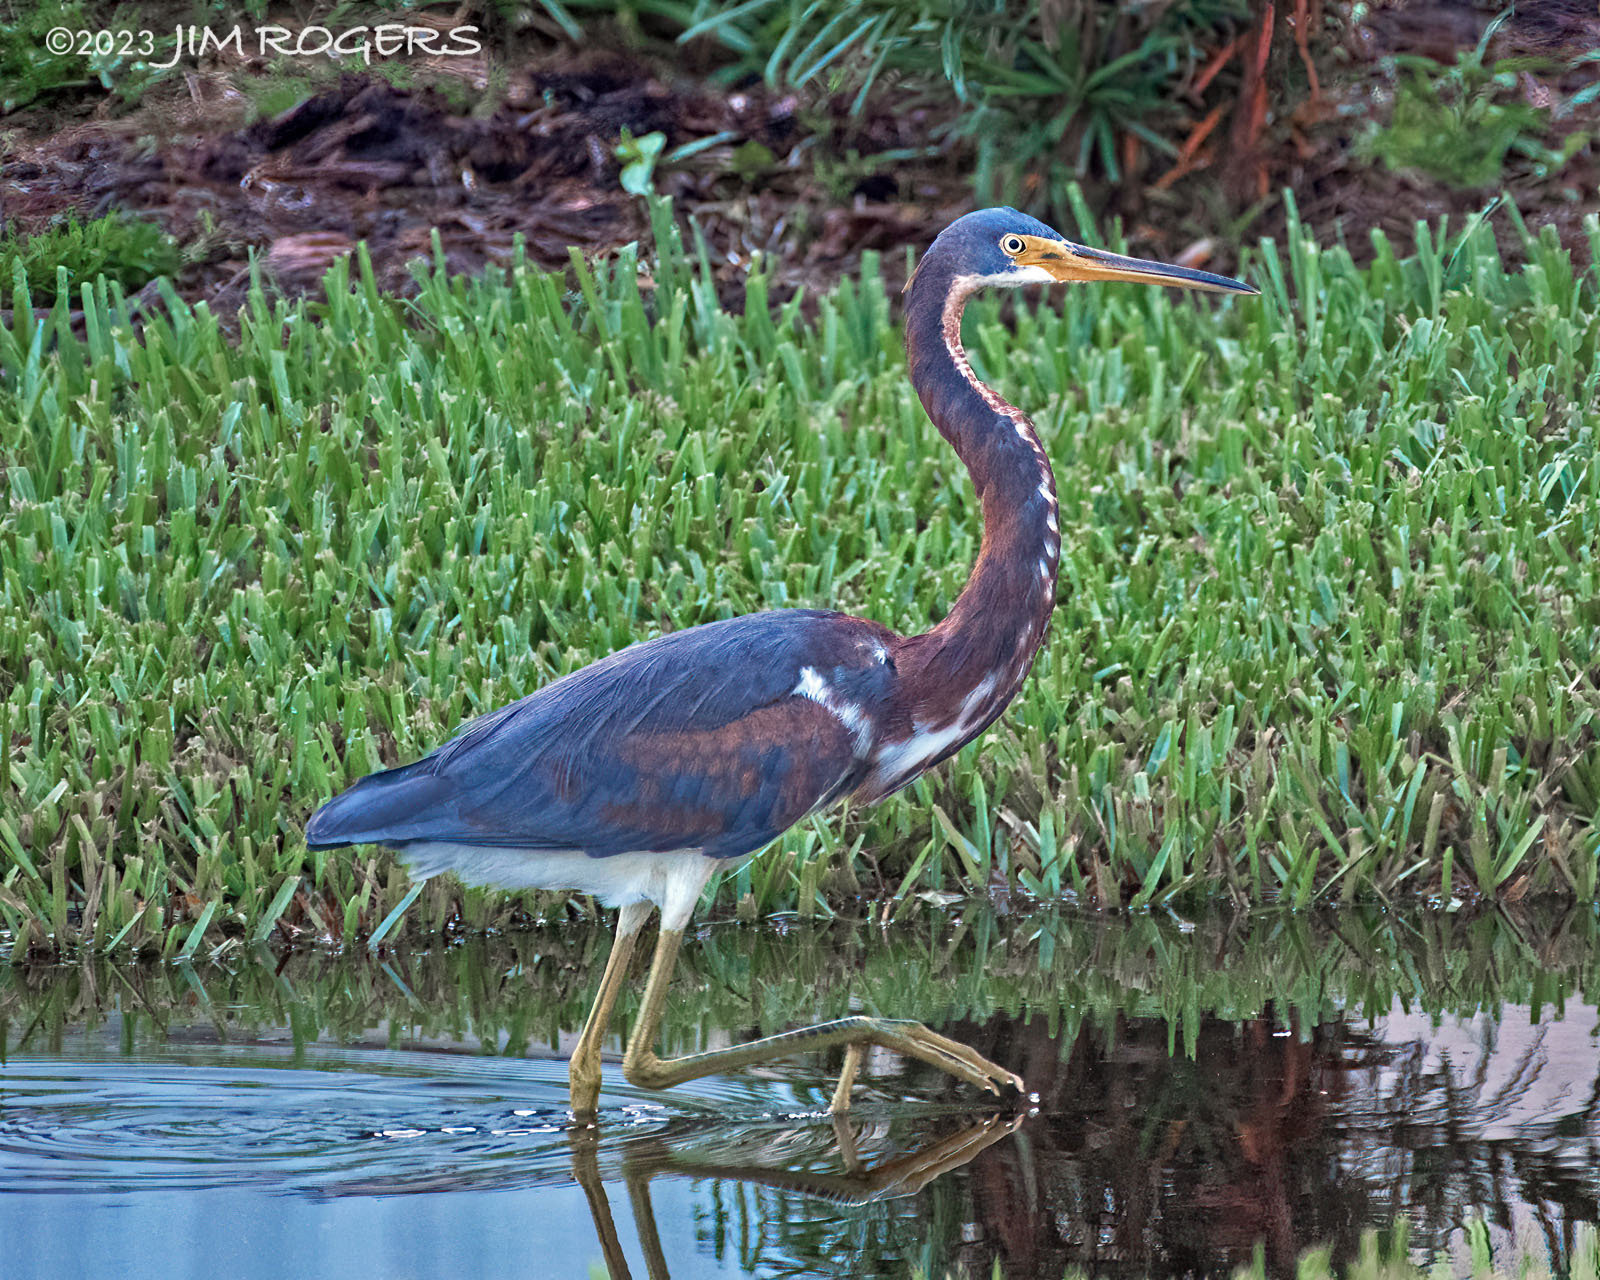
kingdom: Animalia
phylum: Chordata
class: Aves
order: Pelecaniformes
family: Ardeidae
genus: Egretta
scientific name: Egretta tricolor
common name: Tricolored heron
